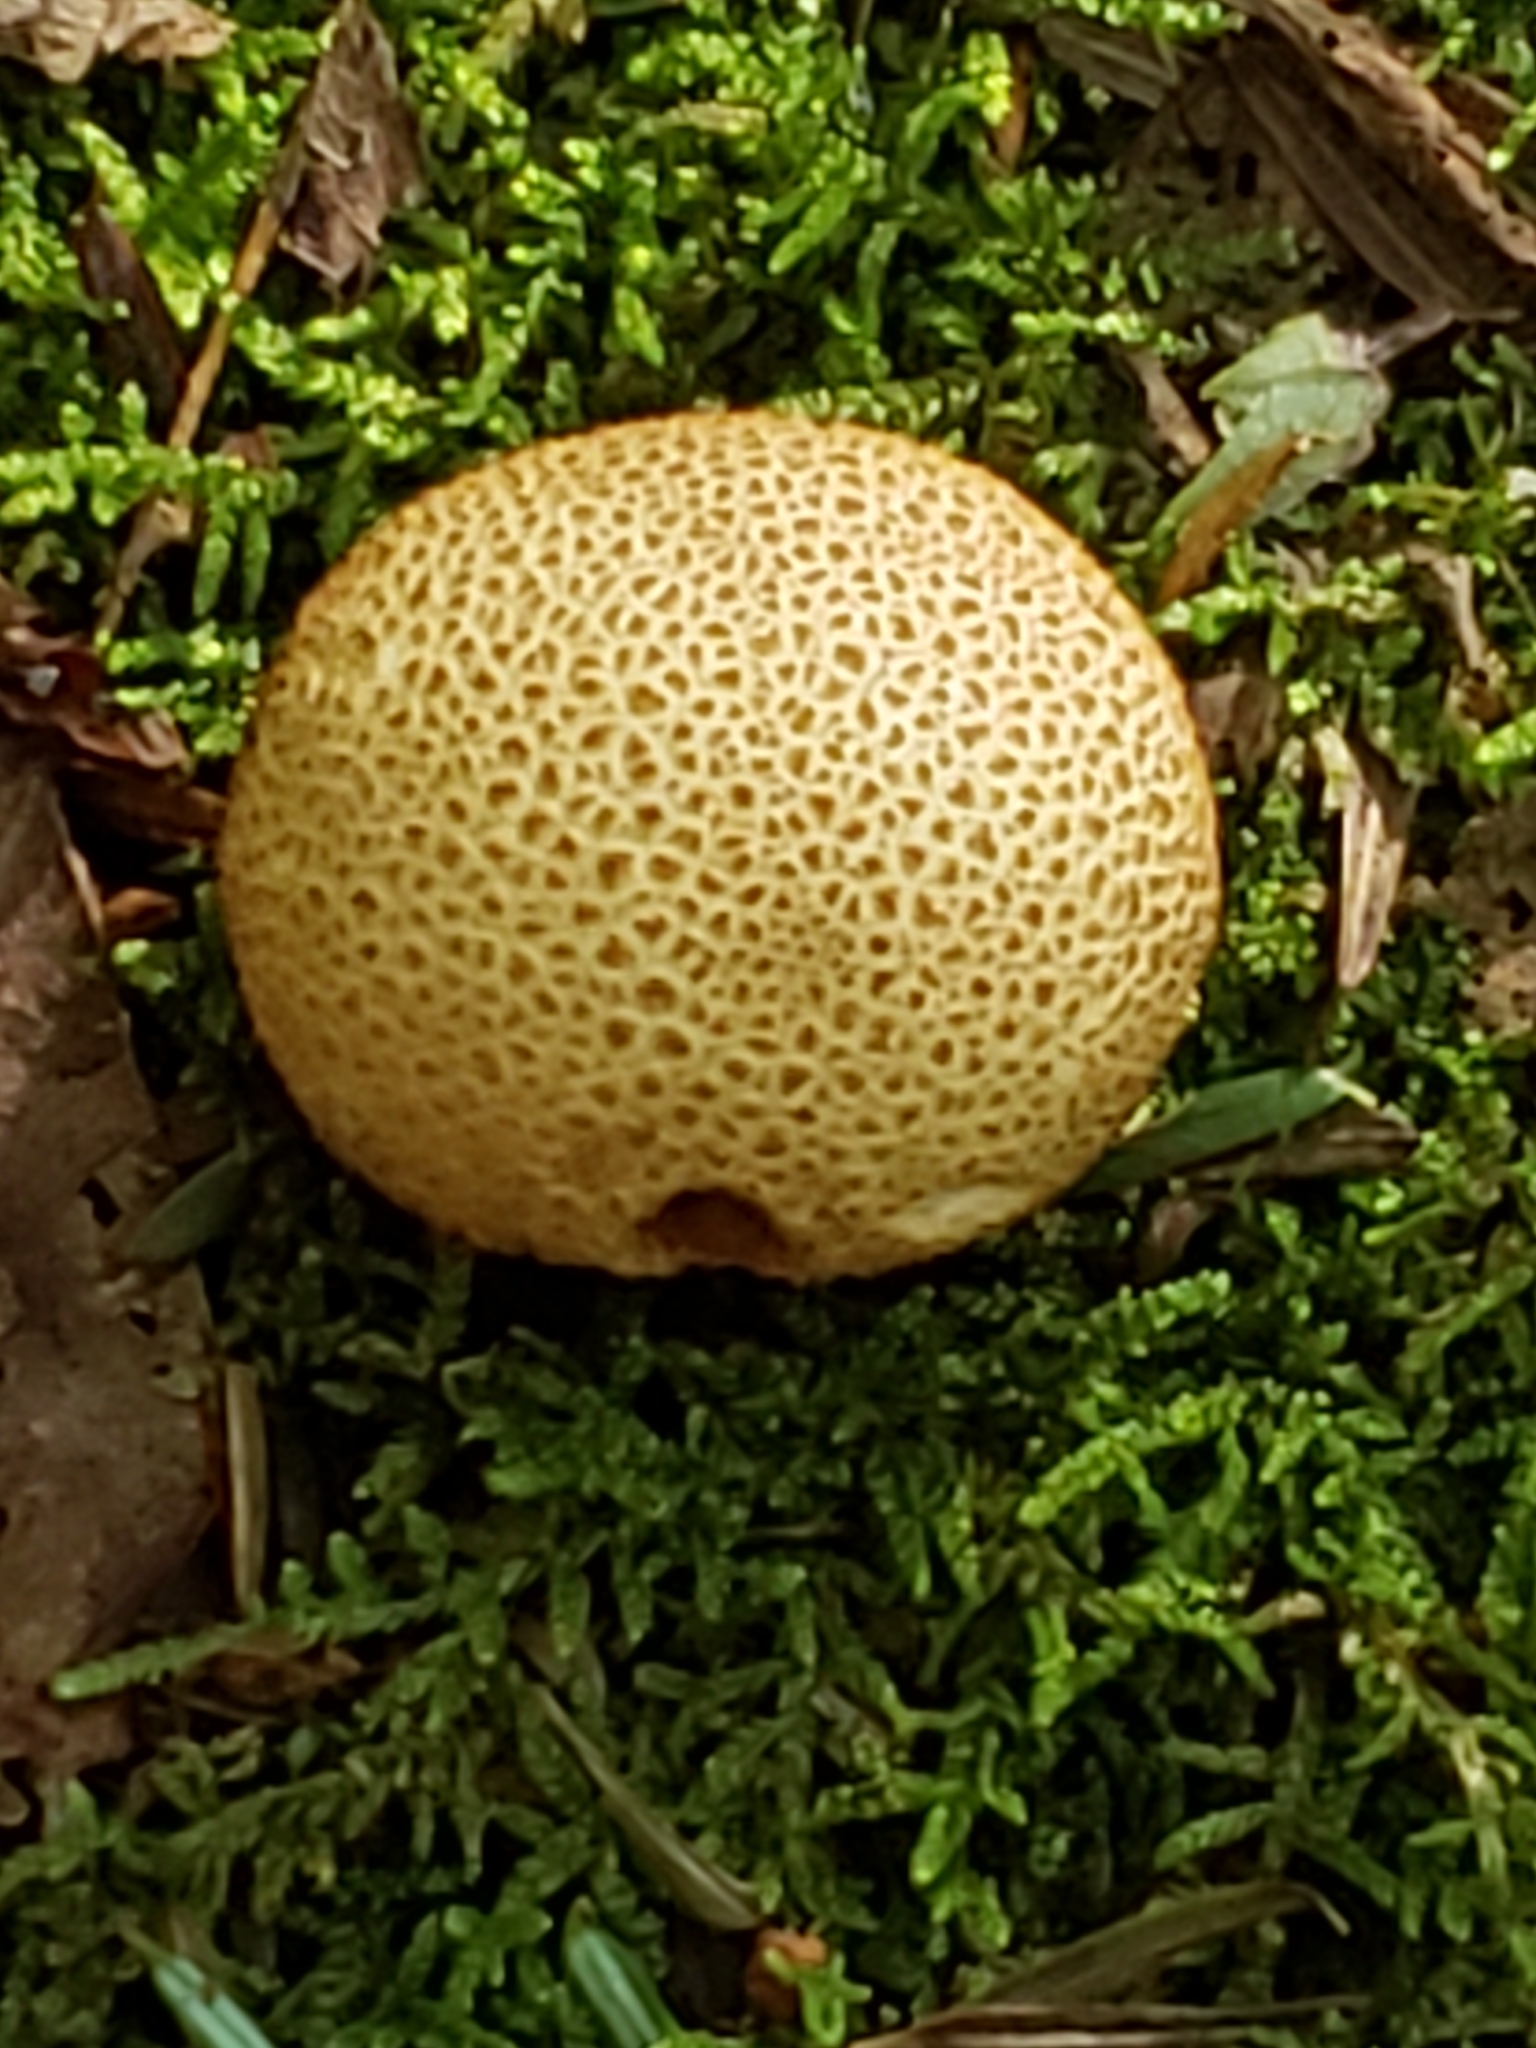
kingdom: Fungi
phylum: Basidiomycota
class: Agaricomycetes
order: Boletales
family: Sclerodermataceae
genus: Scleroderma
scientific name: Scleroderma areolatum
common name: Leopard earthball
